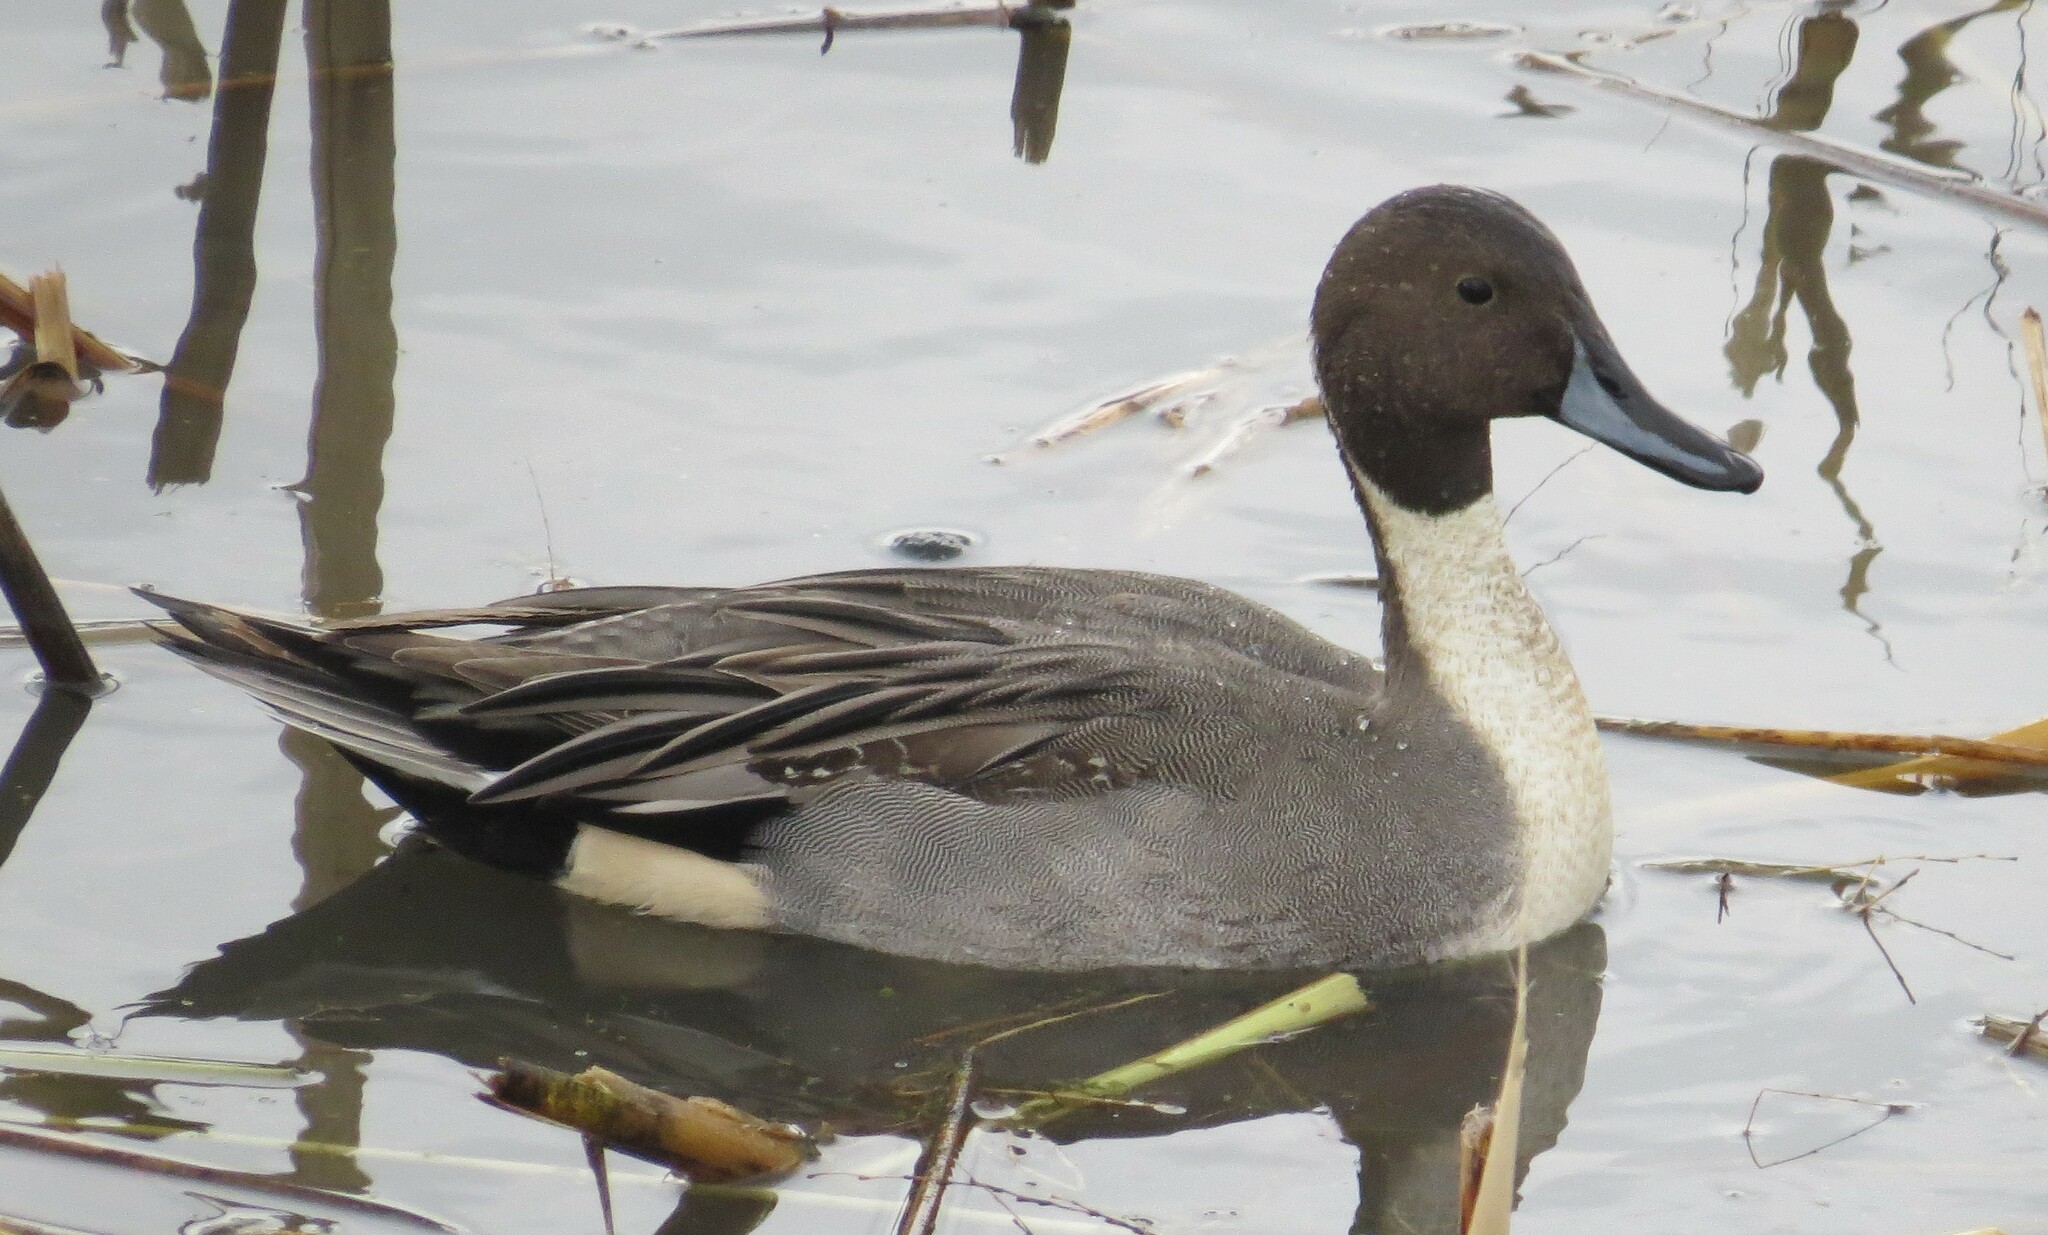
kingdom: Animalia
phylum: Chordata
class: Aves
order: Anseriformes
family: Anatidae
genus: Anas
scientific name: Anas acuta
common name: Northern pintail
